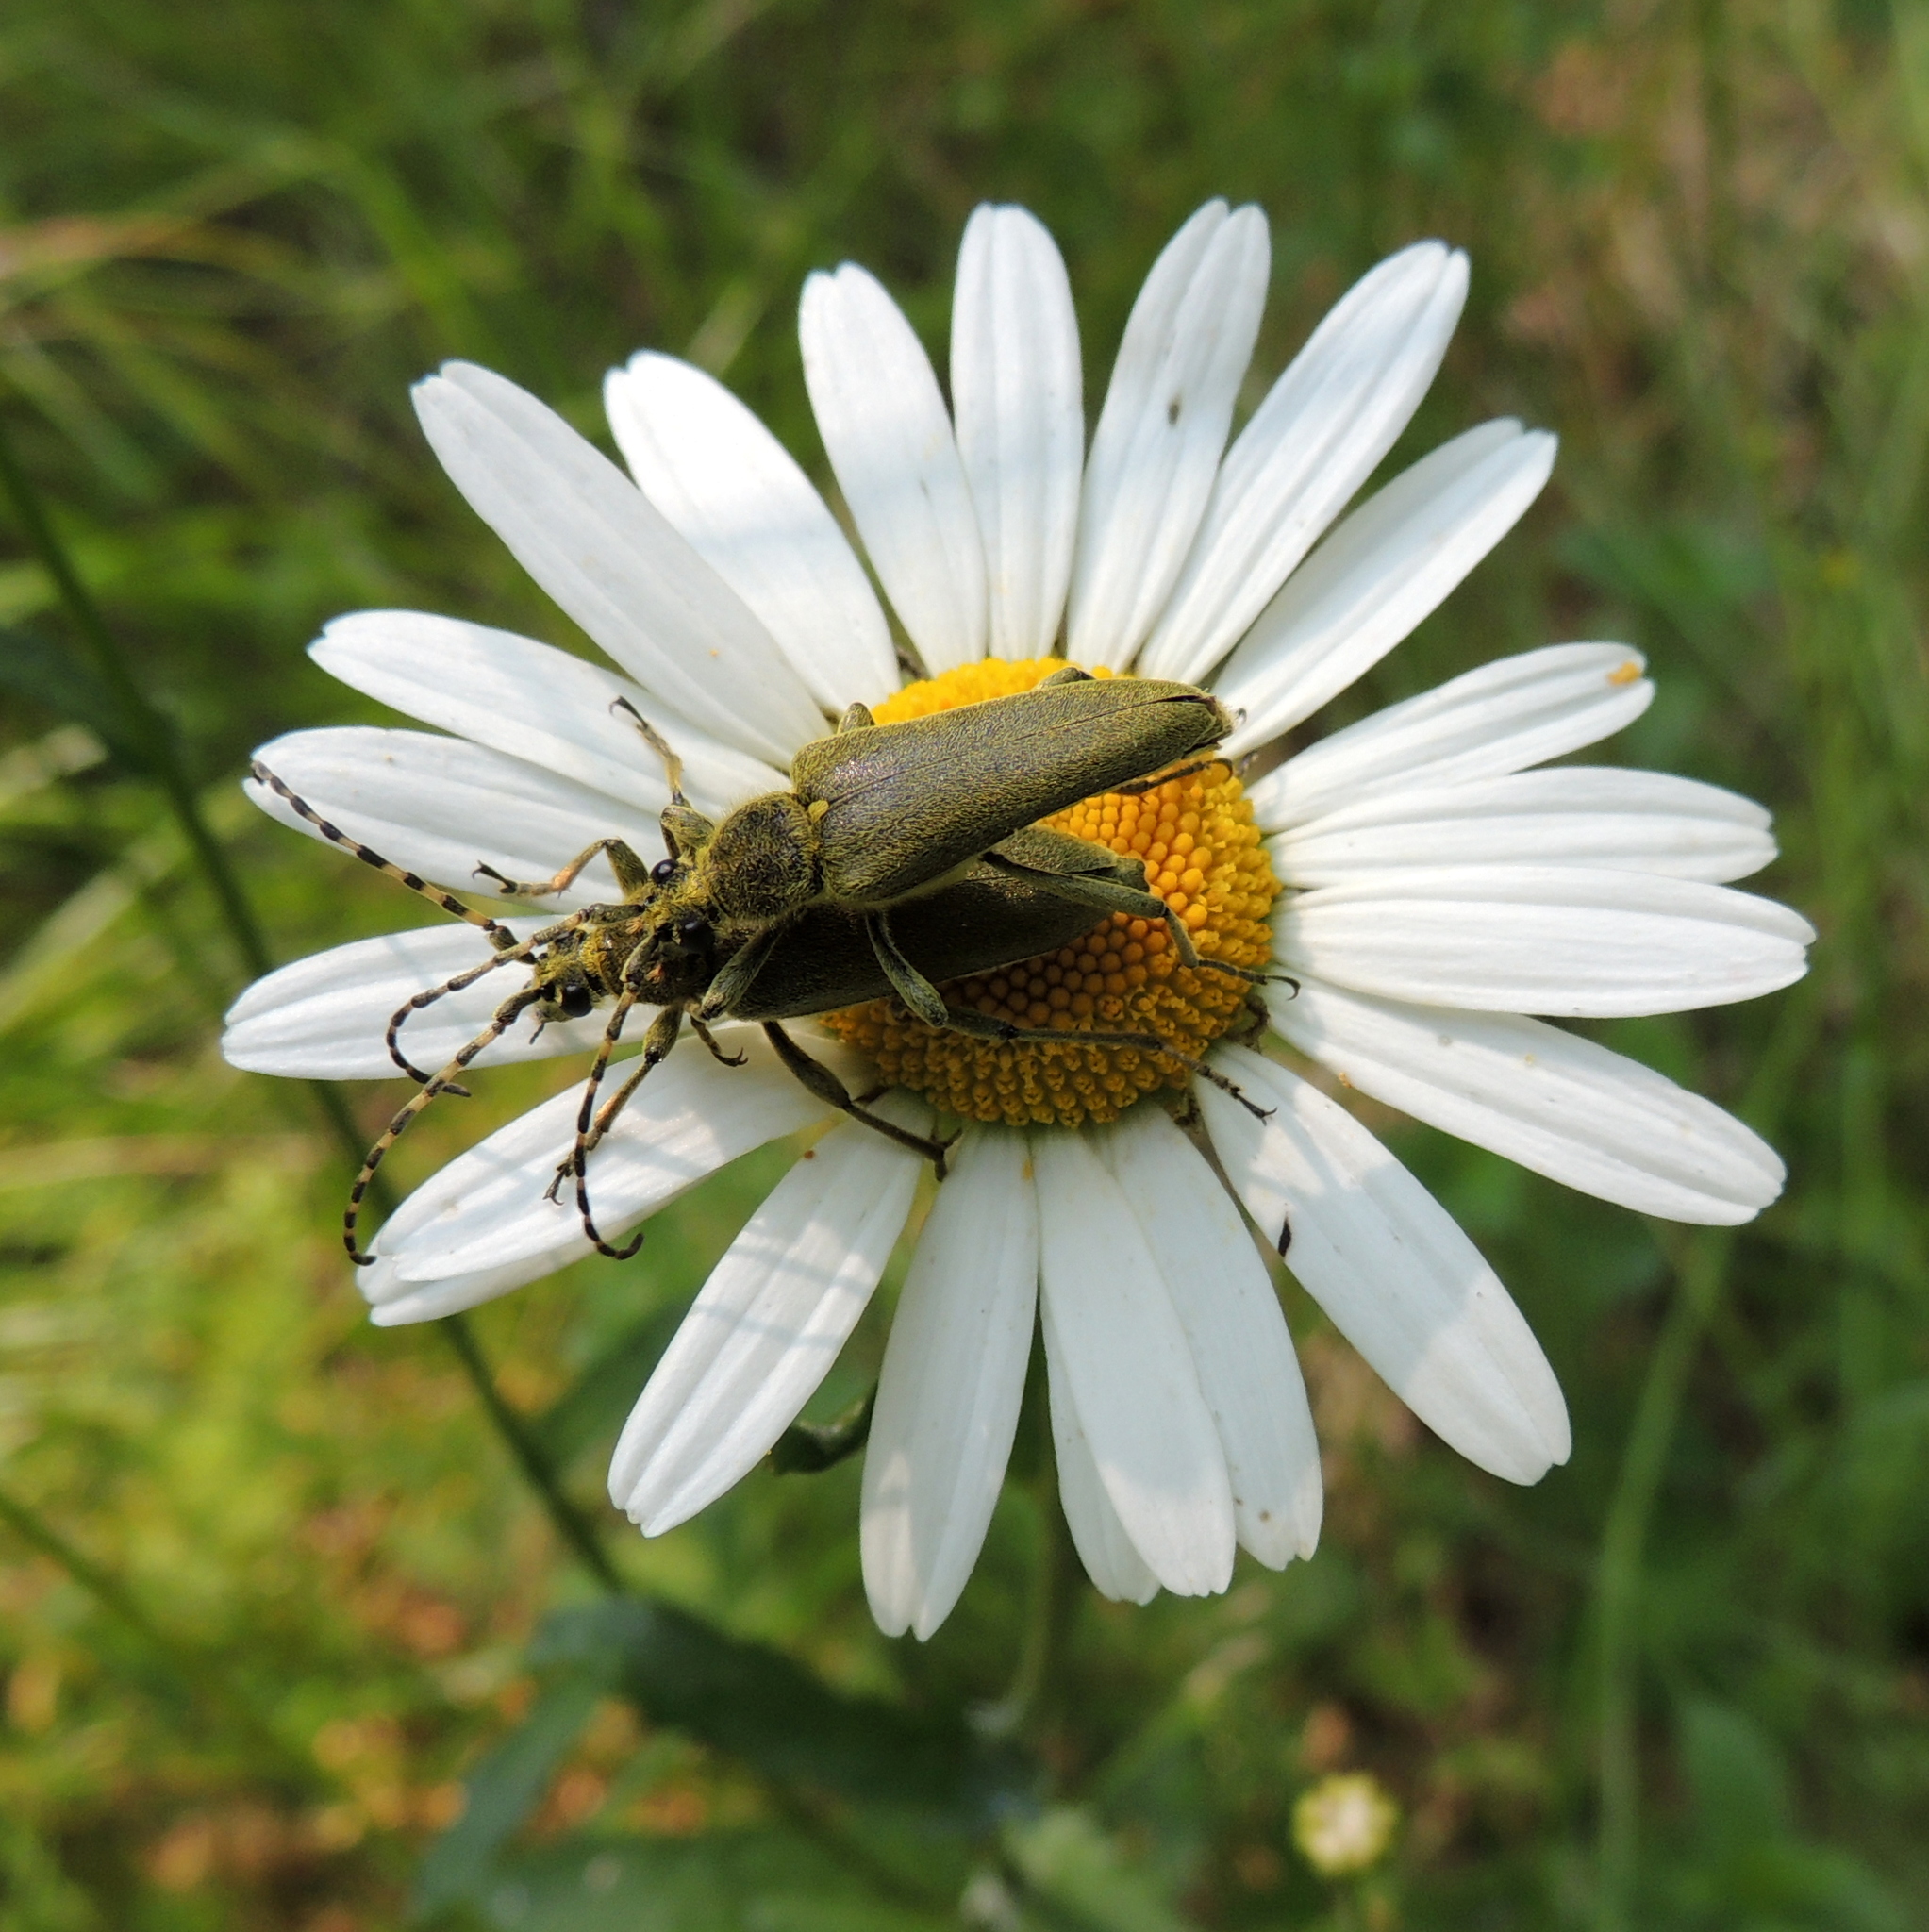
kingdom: Animalia
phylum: Arthropoda
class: Insecta
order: Coleoptera
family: Cerambycidae
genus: Lepturobosca
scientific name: Lepturobosca virens
